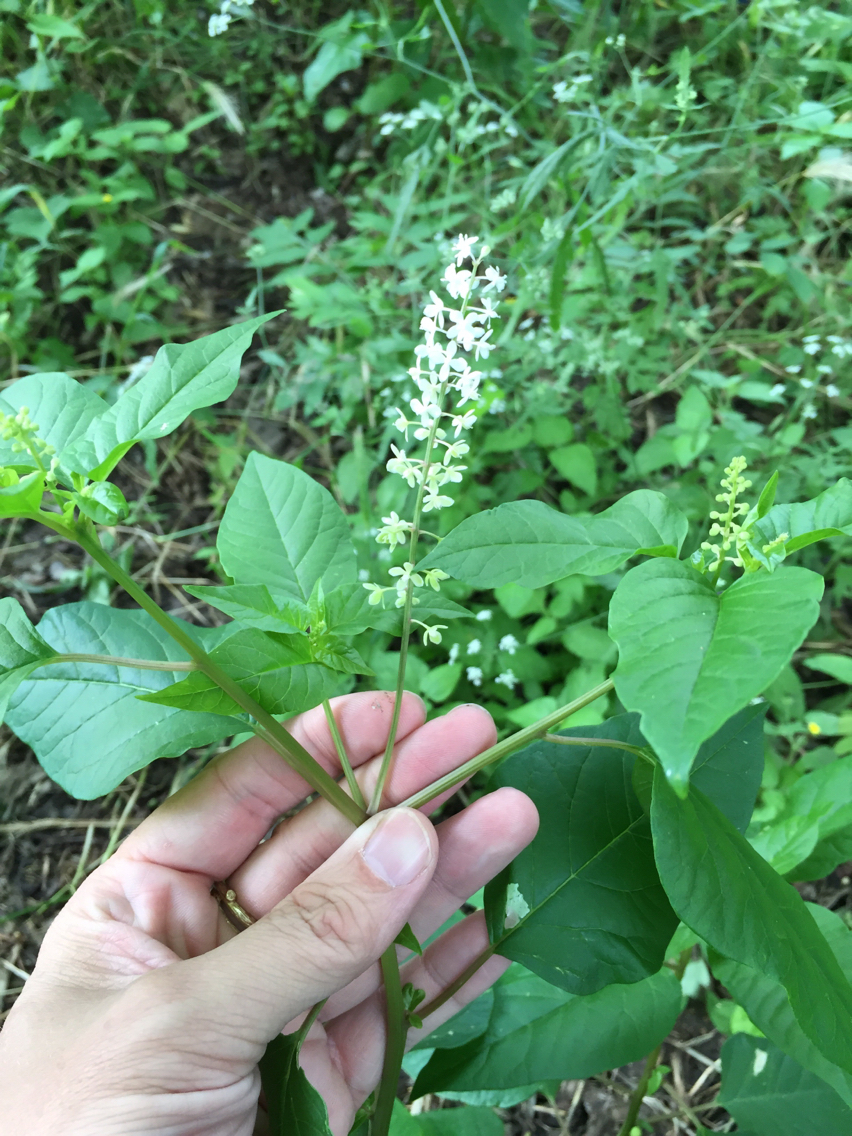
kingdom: Plantae
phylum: Tracheophyta
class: Magnoliopsida
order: Caryophyllales
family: Phytolaccaceae
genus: Rivina
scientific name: Rivina humilis
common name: Rougeplant
